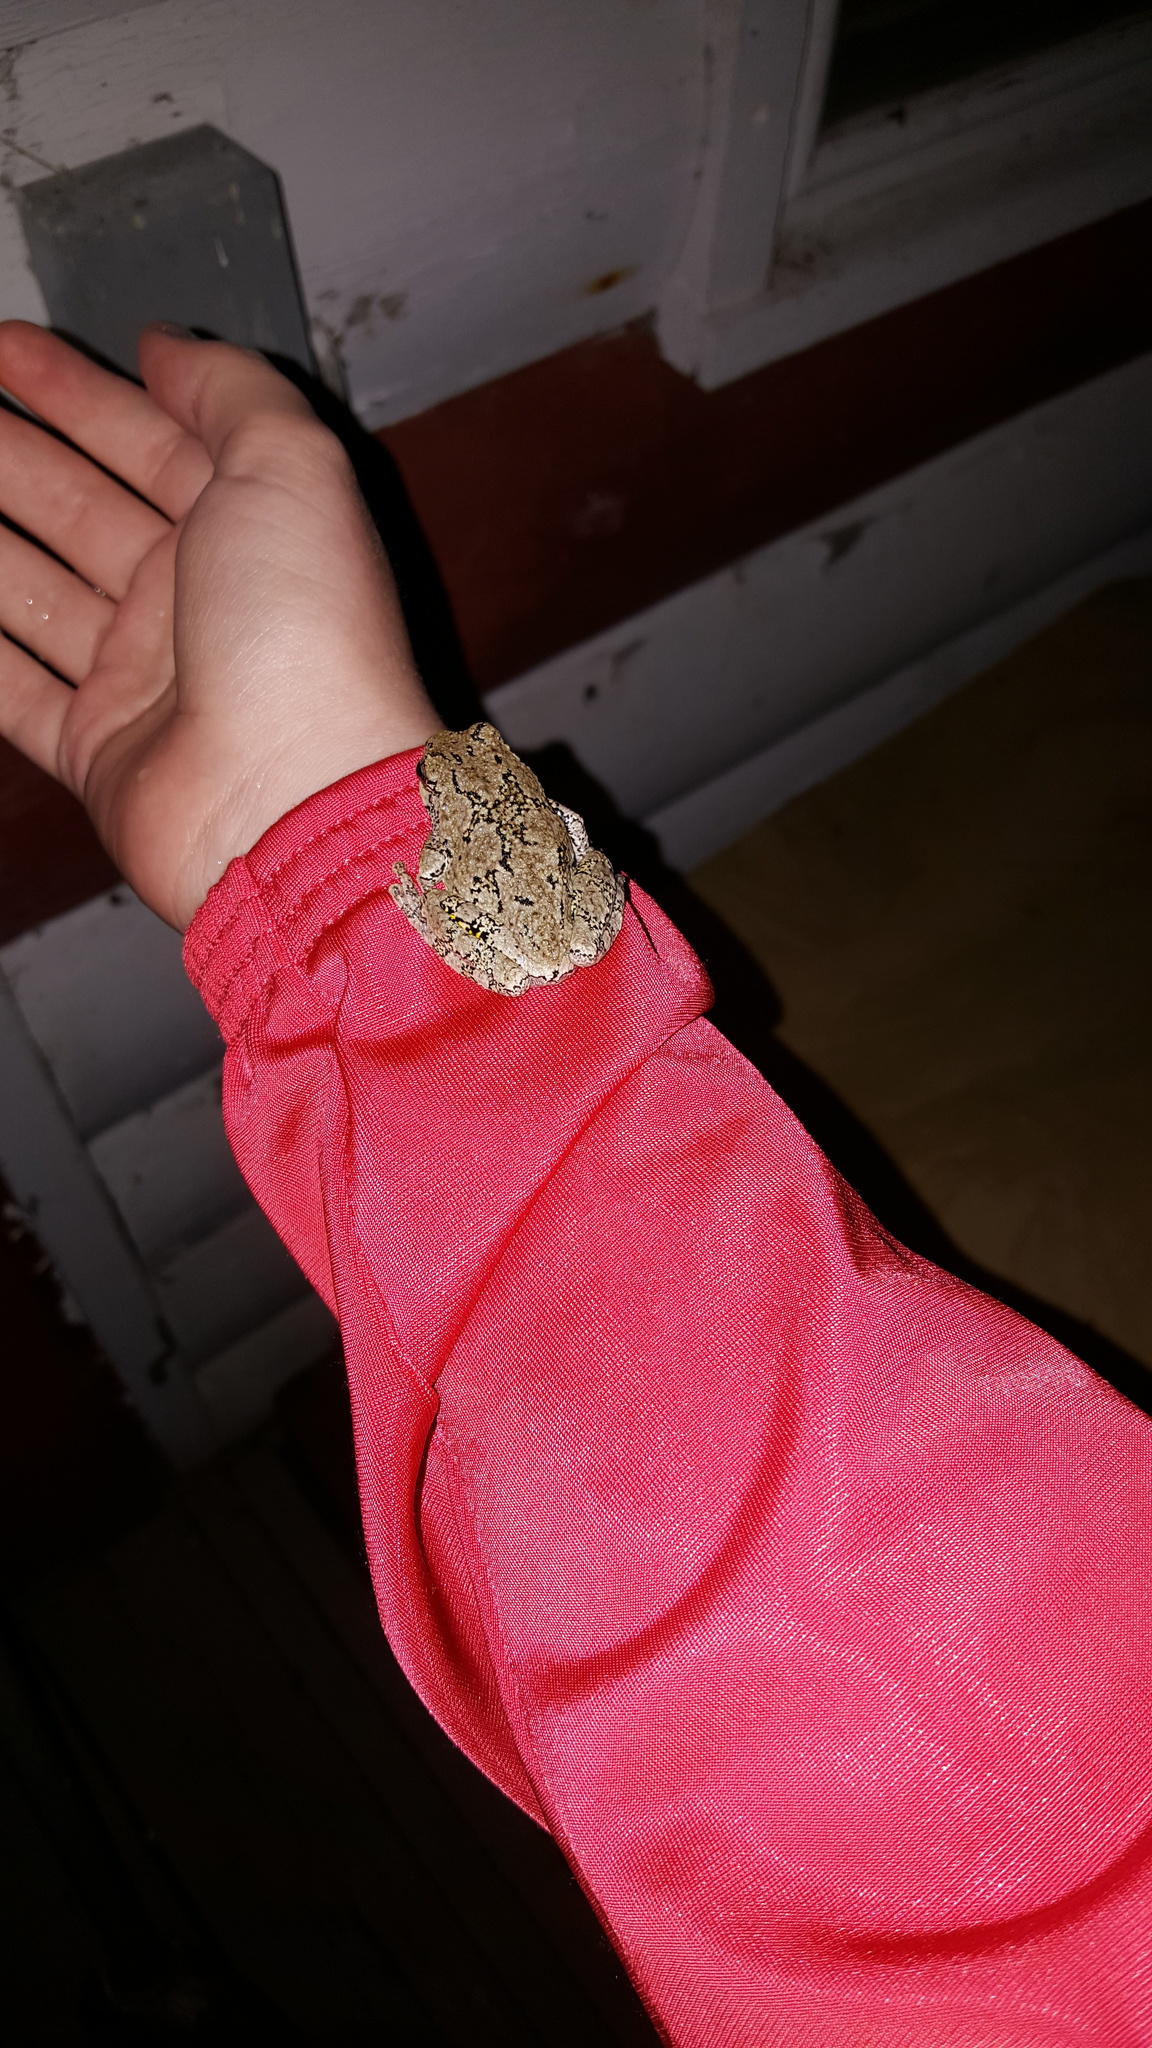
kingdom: Animalia
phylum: Chordata
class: Amphibia
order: Anura
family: Hylidae
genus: Dryophytes
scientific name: Dryophytes versicolor
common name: Gray treefrog
